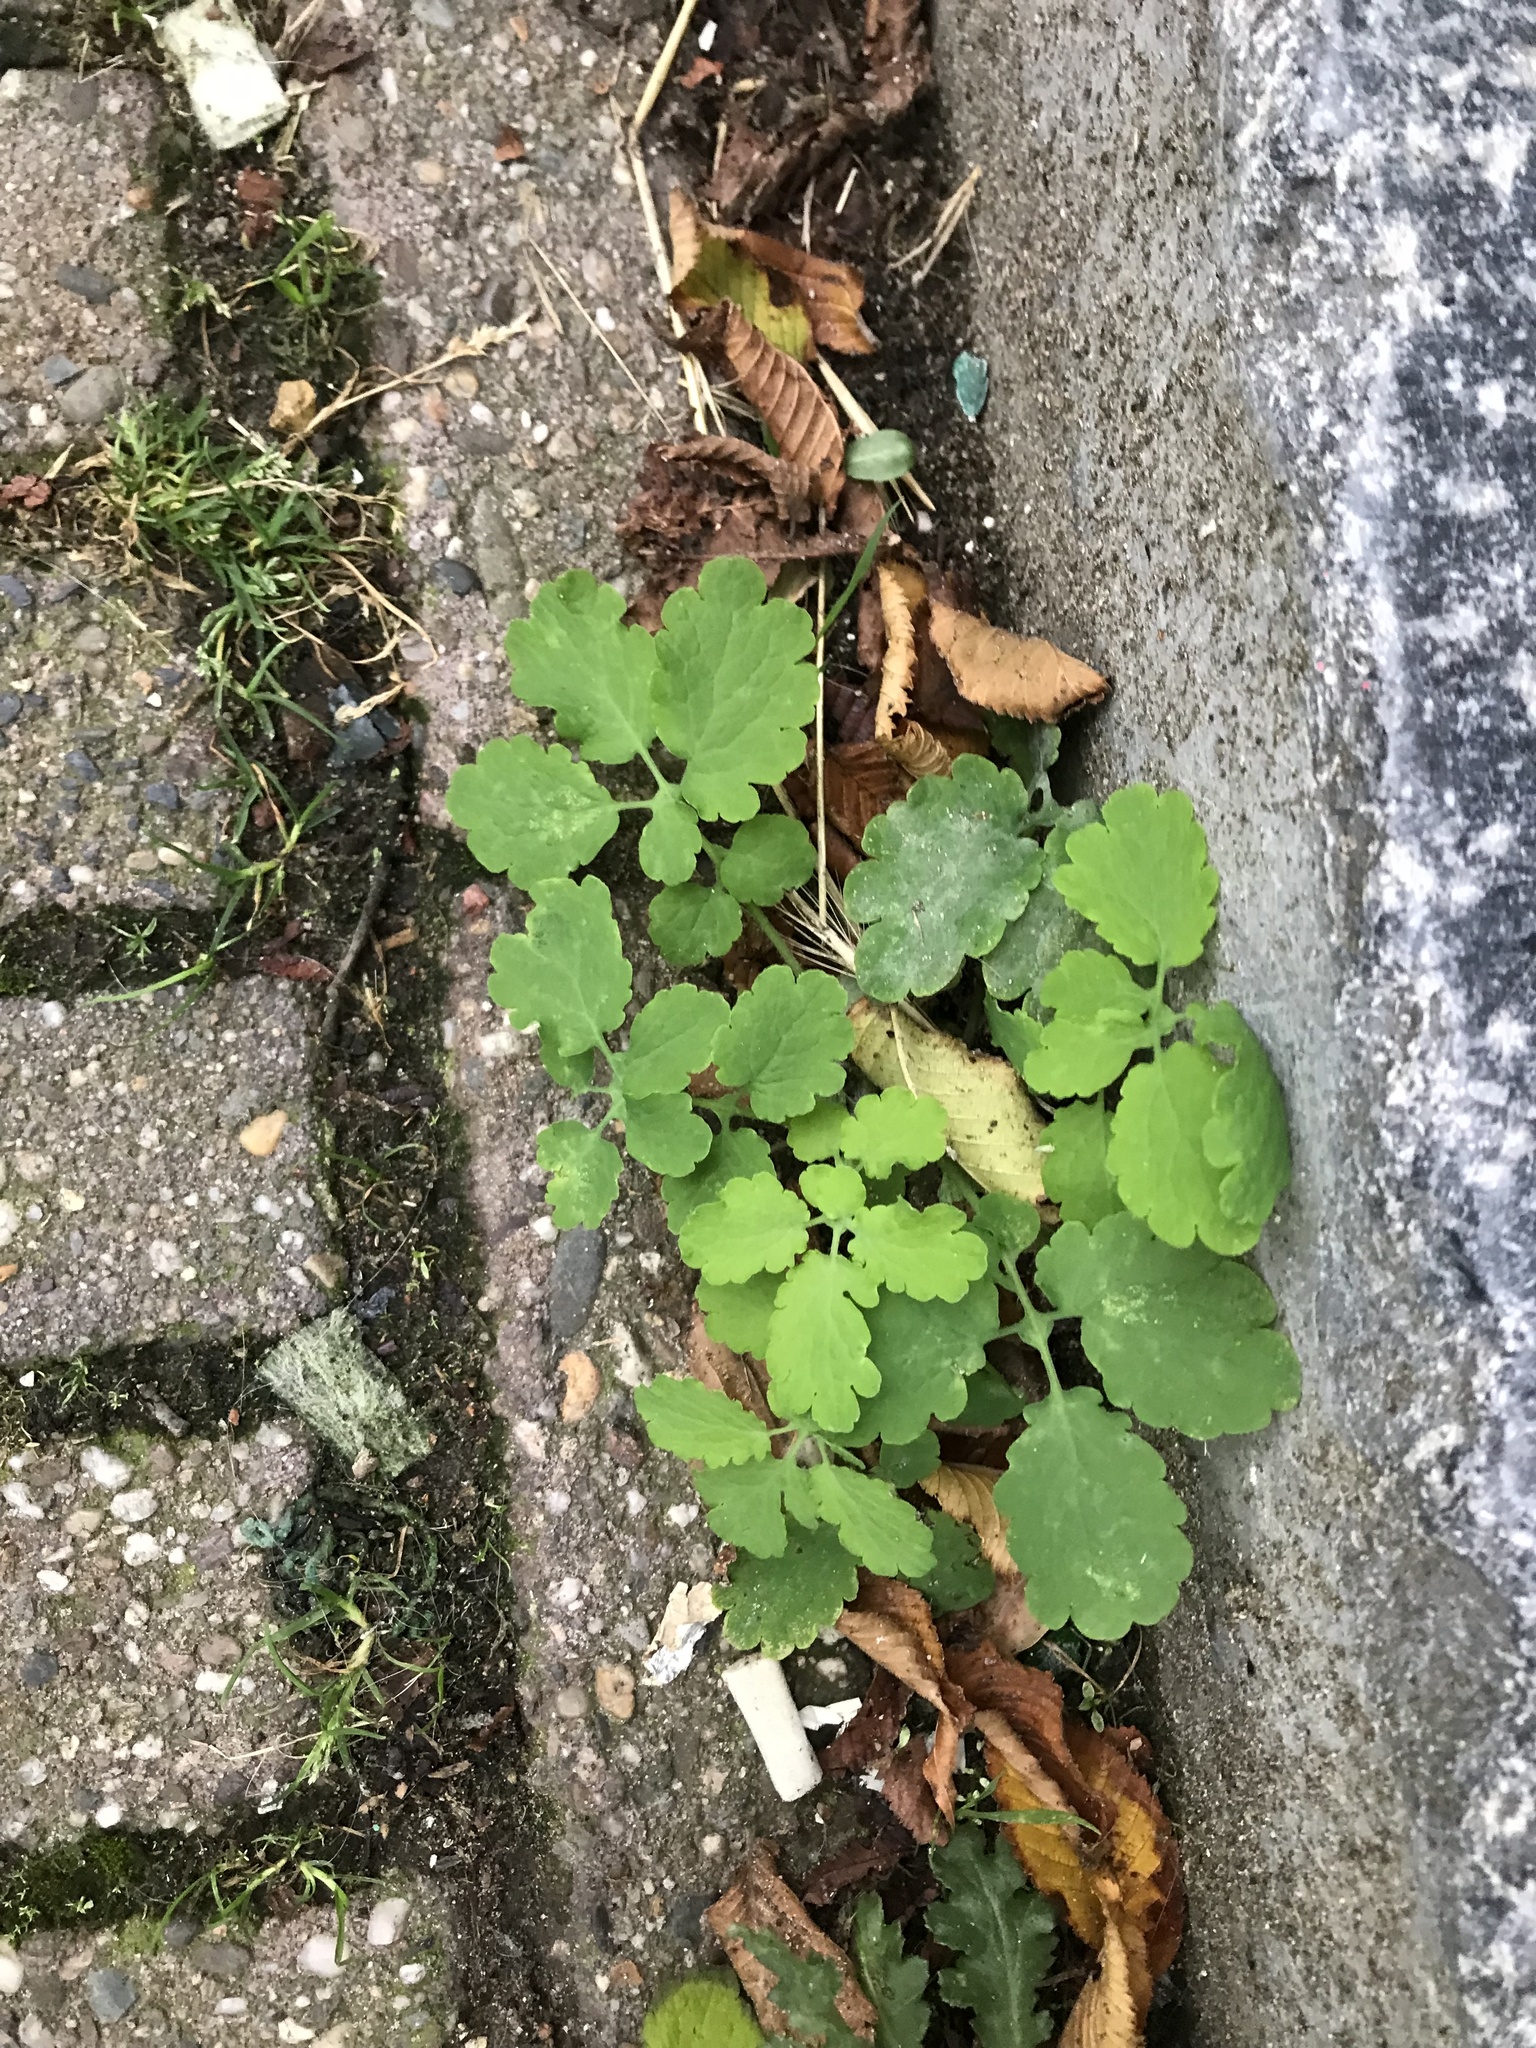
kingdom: Plantae
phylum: Tracheophyta
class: Magnoliopsida
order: Ranunculales
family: Papaveraceae
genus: Chelidonium
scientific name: Chelidonium majus
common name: Greater celandine
